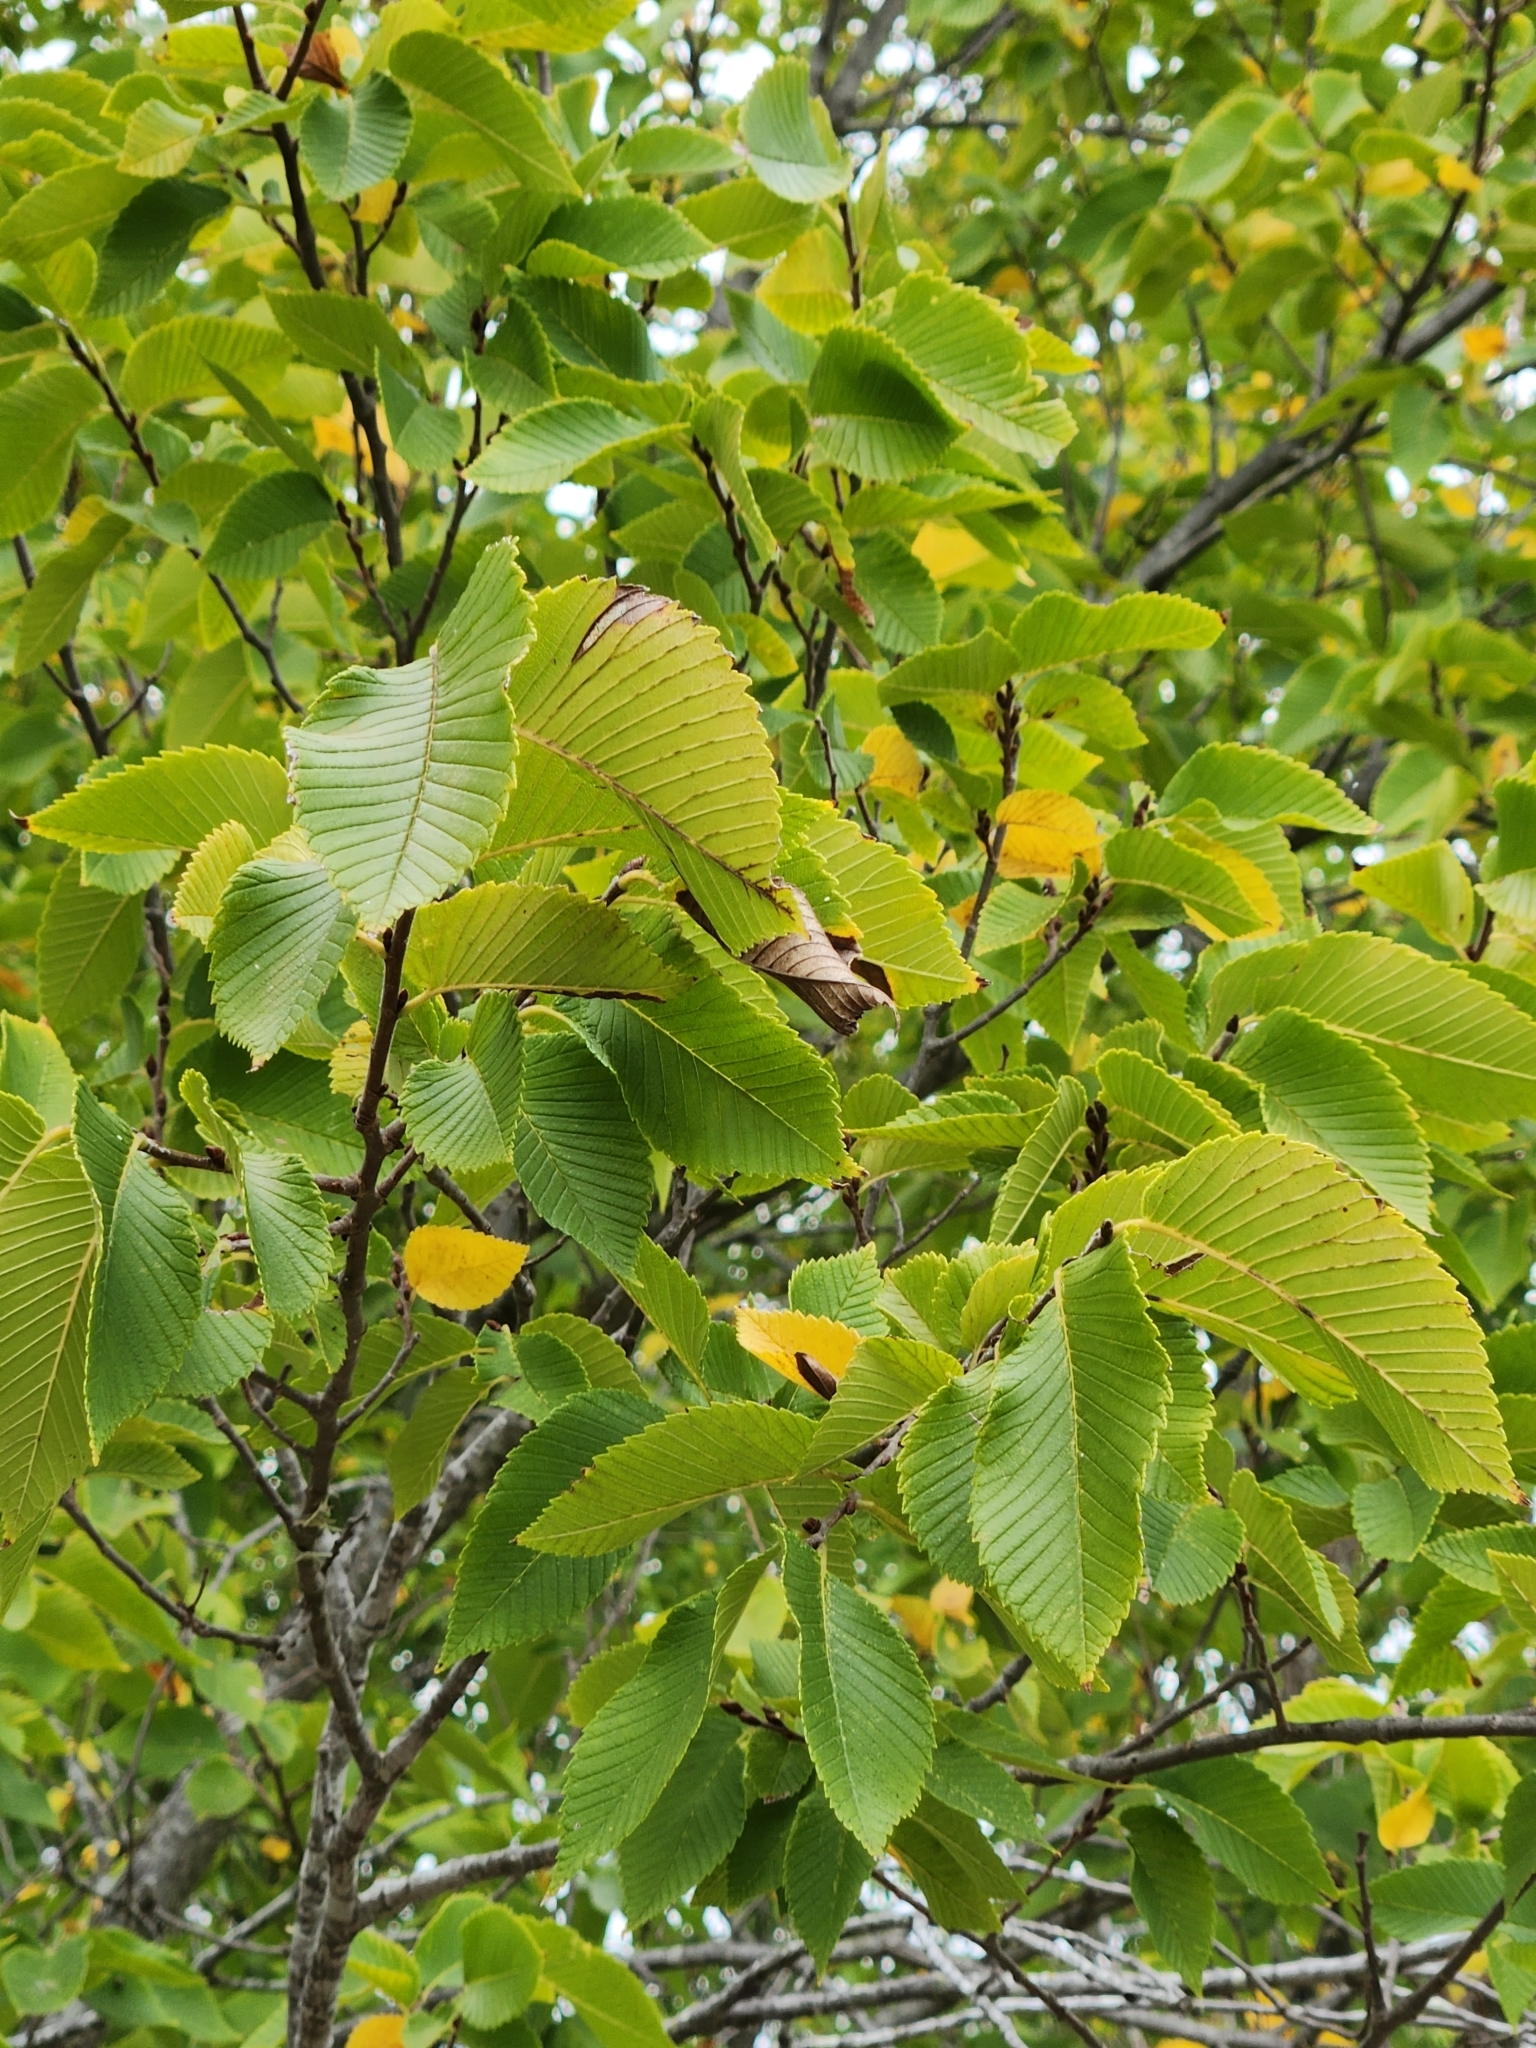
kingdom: Plantae
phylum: Tracheophyta
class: Magnoliopsida
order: Rosales
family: Ulmaceae
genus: Ulmus
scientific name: Ulmus americana
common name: American elm
